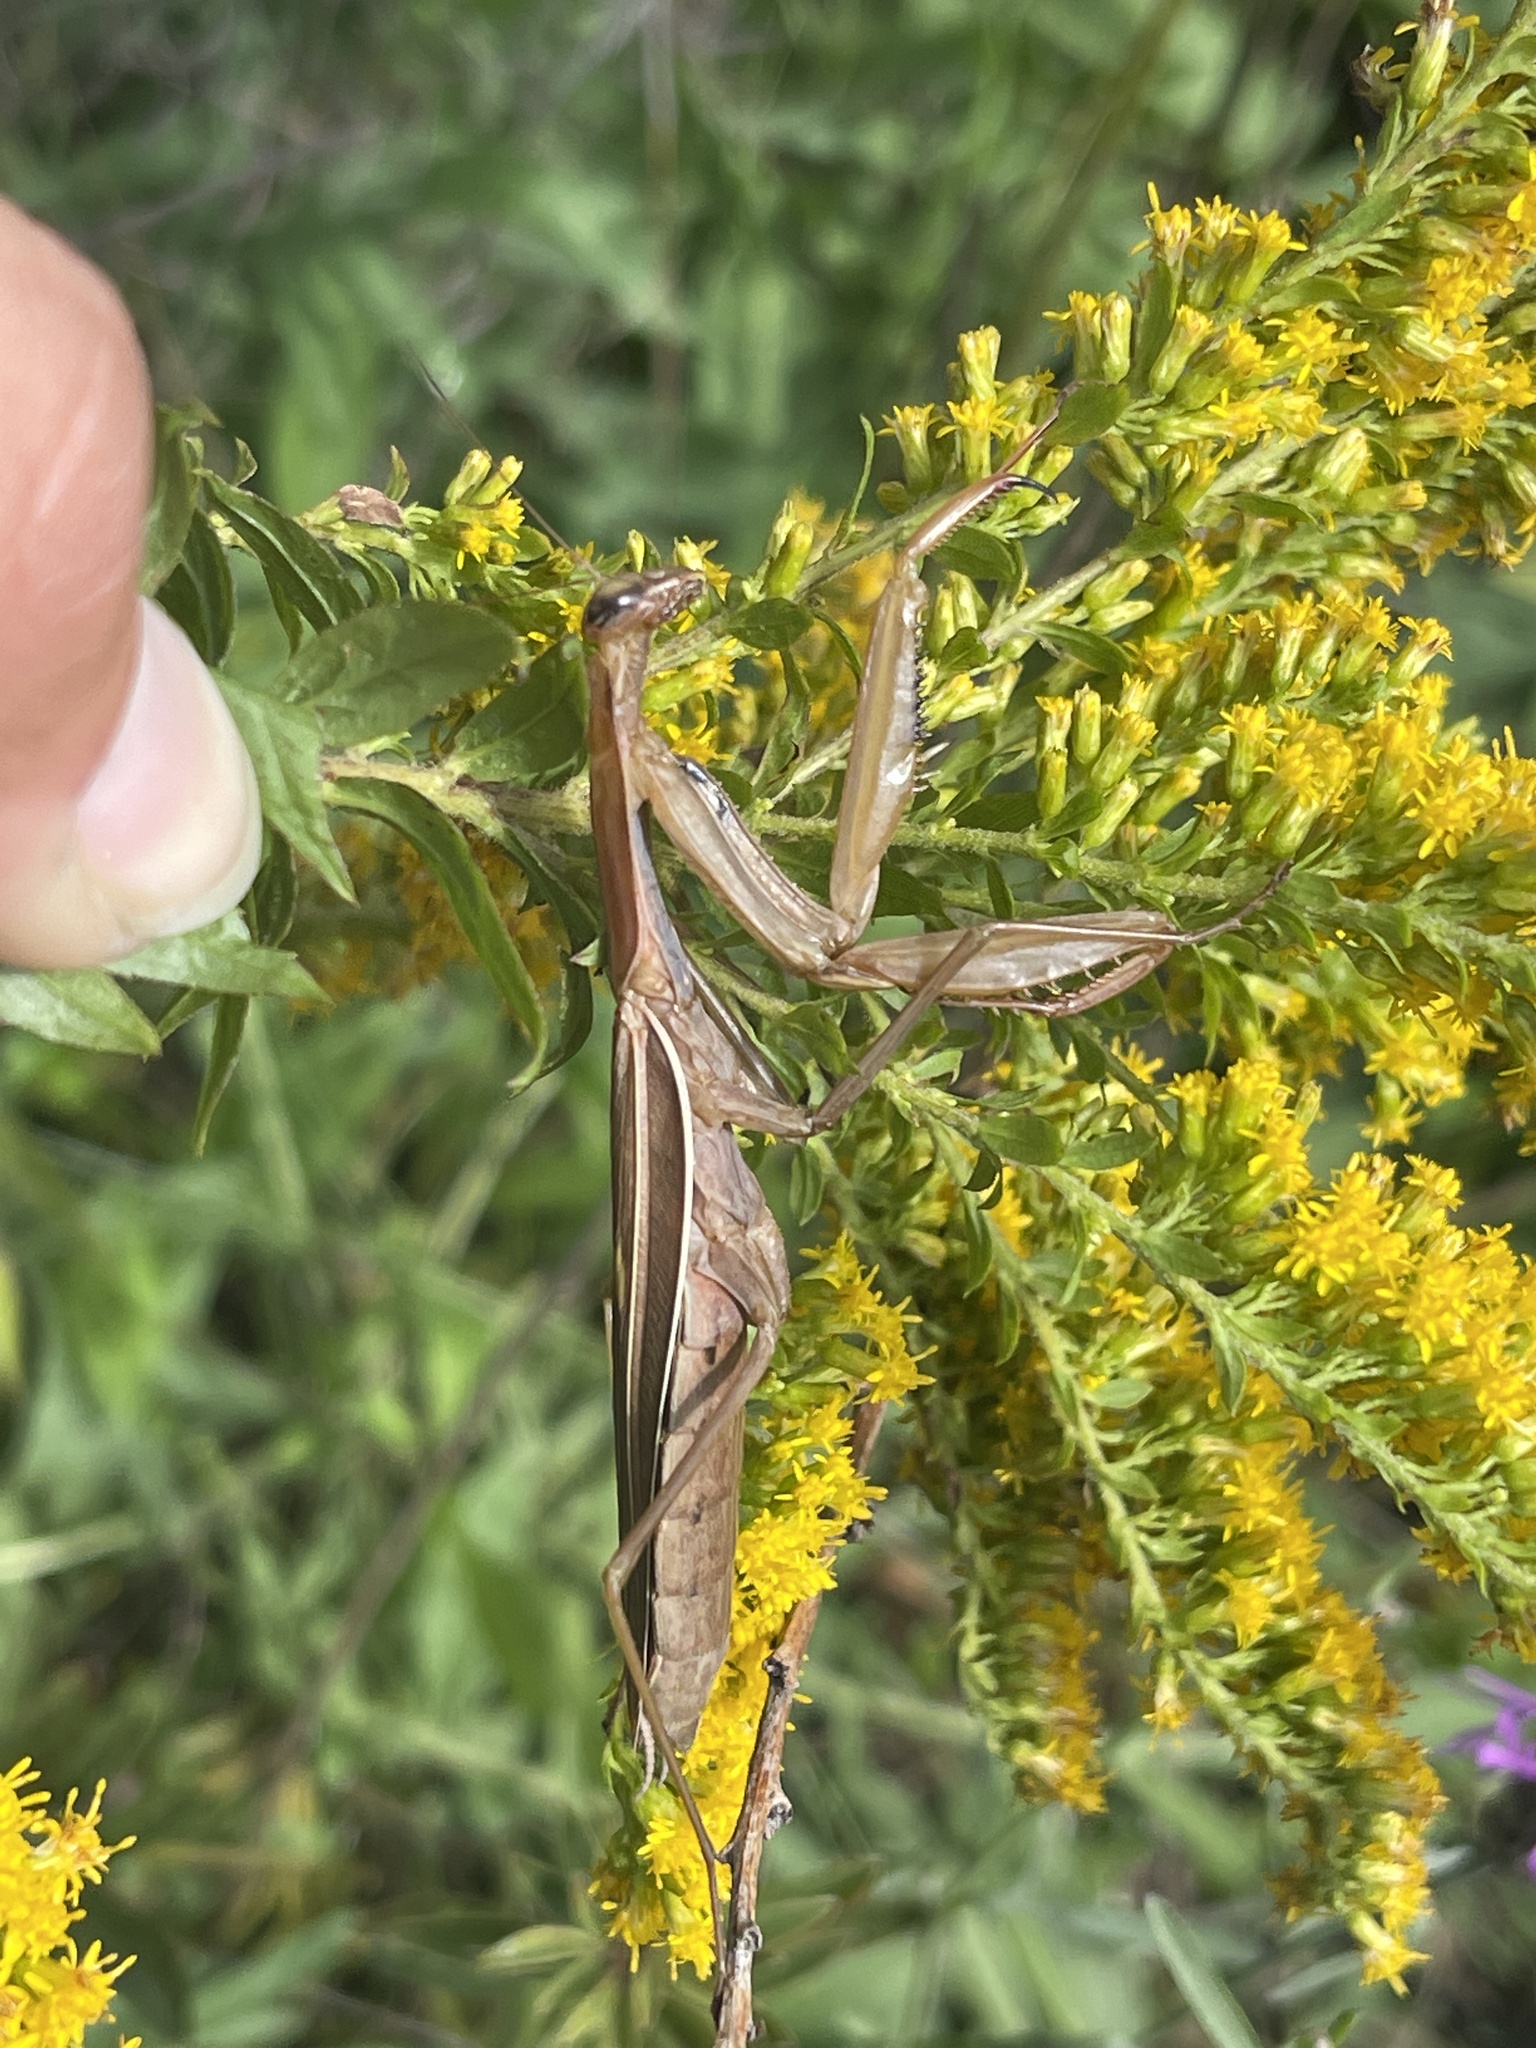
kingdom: Animalia
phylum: Arthropoda
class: Insecta
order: Mantodea
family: Mantidae
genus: Mantis
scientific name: Mantis religiosa
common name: Praying mantis
